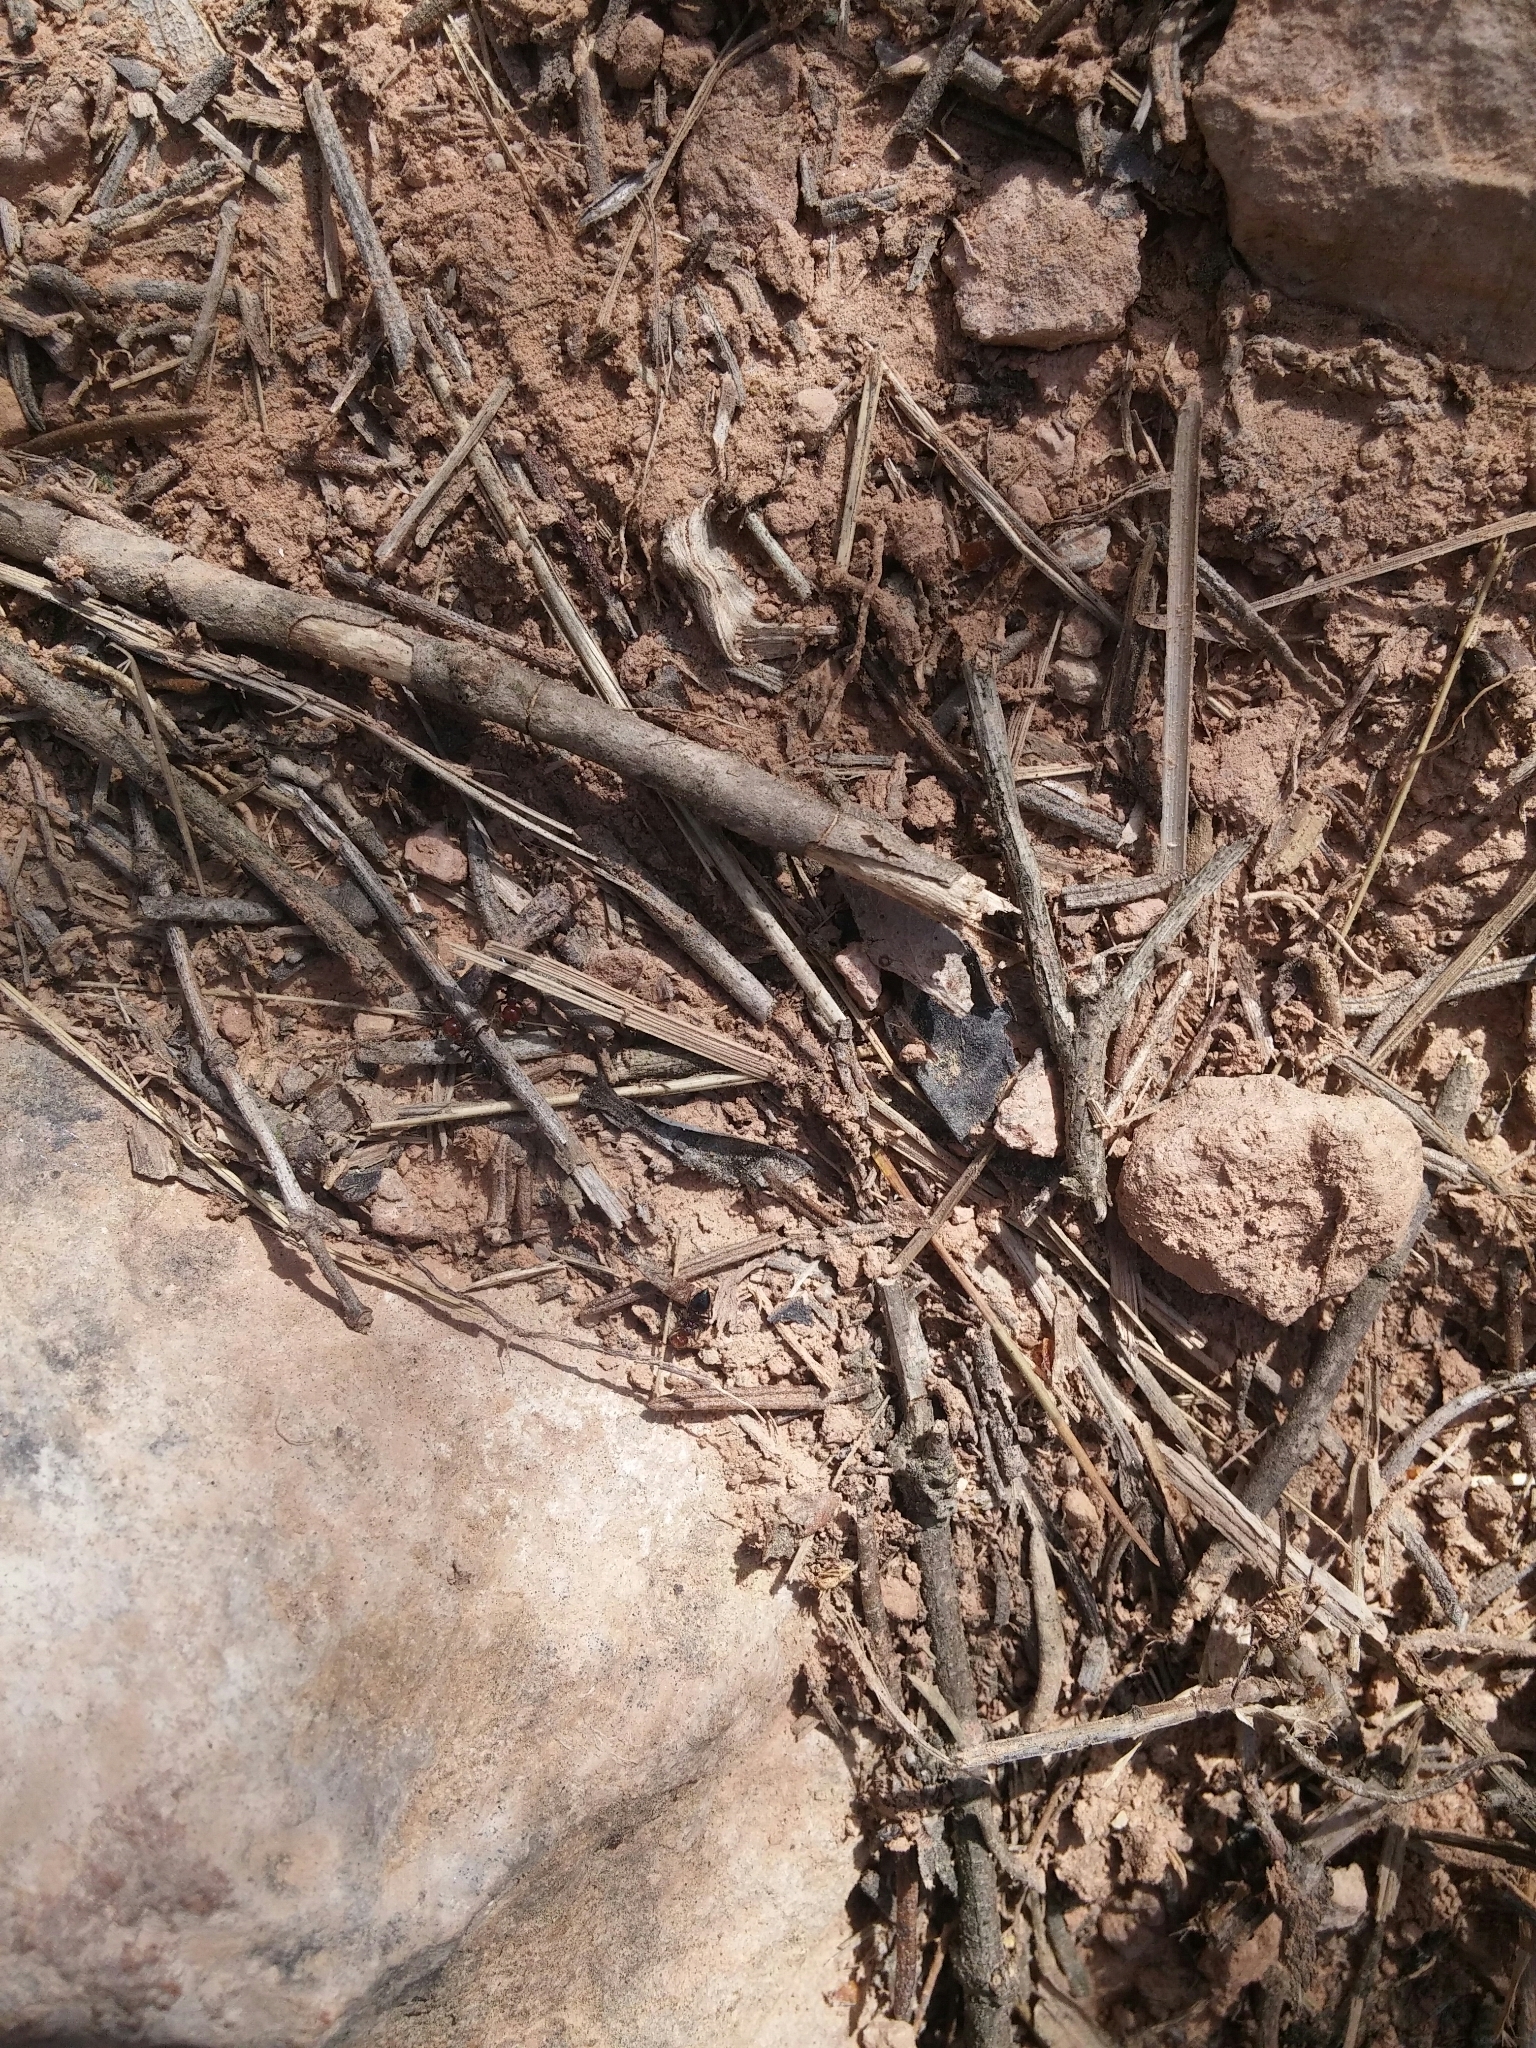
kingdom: Animalia
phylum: Arthropoda
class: Insecta
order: Hymenoptera
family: Formicidae
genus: Crematogaster
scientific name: Crematogaster scutellaris
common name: Fourmi du liège
